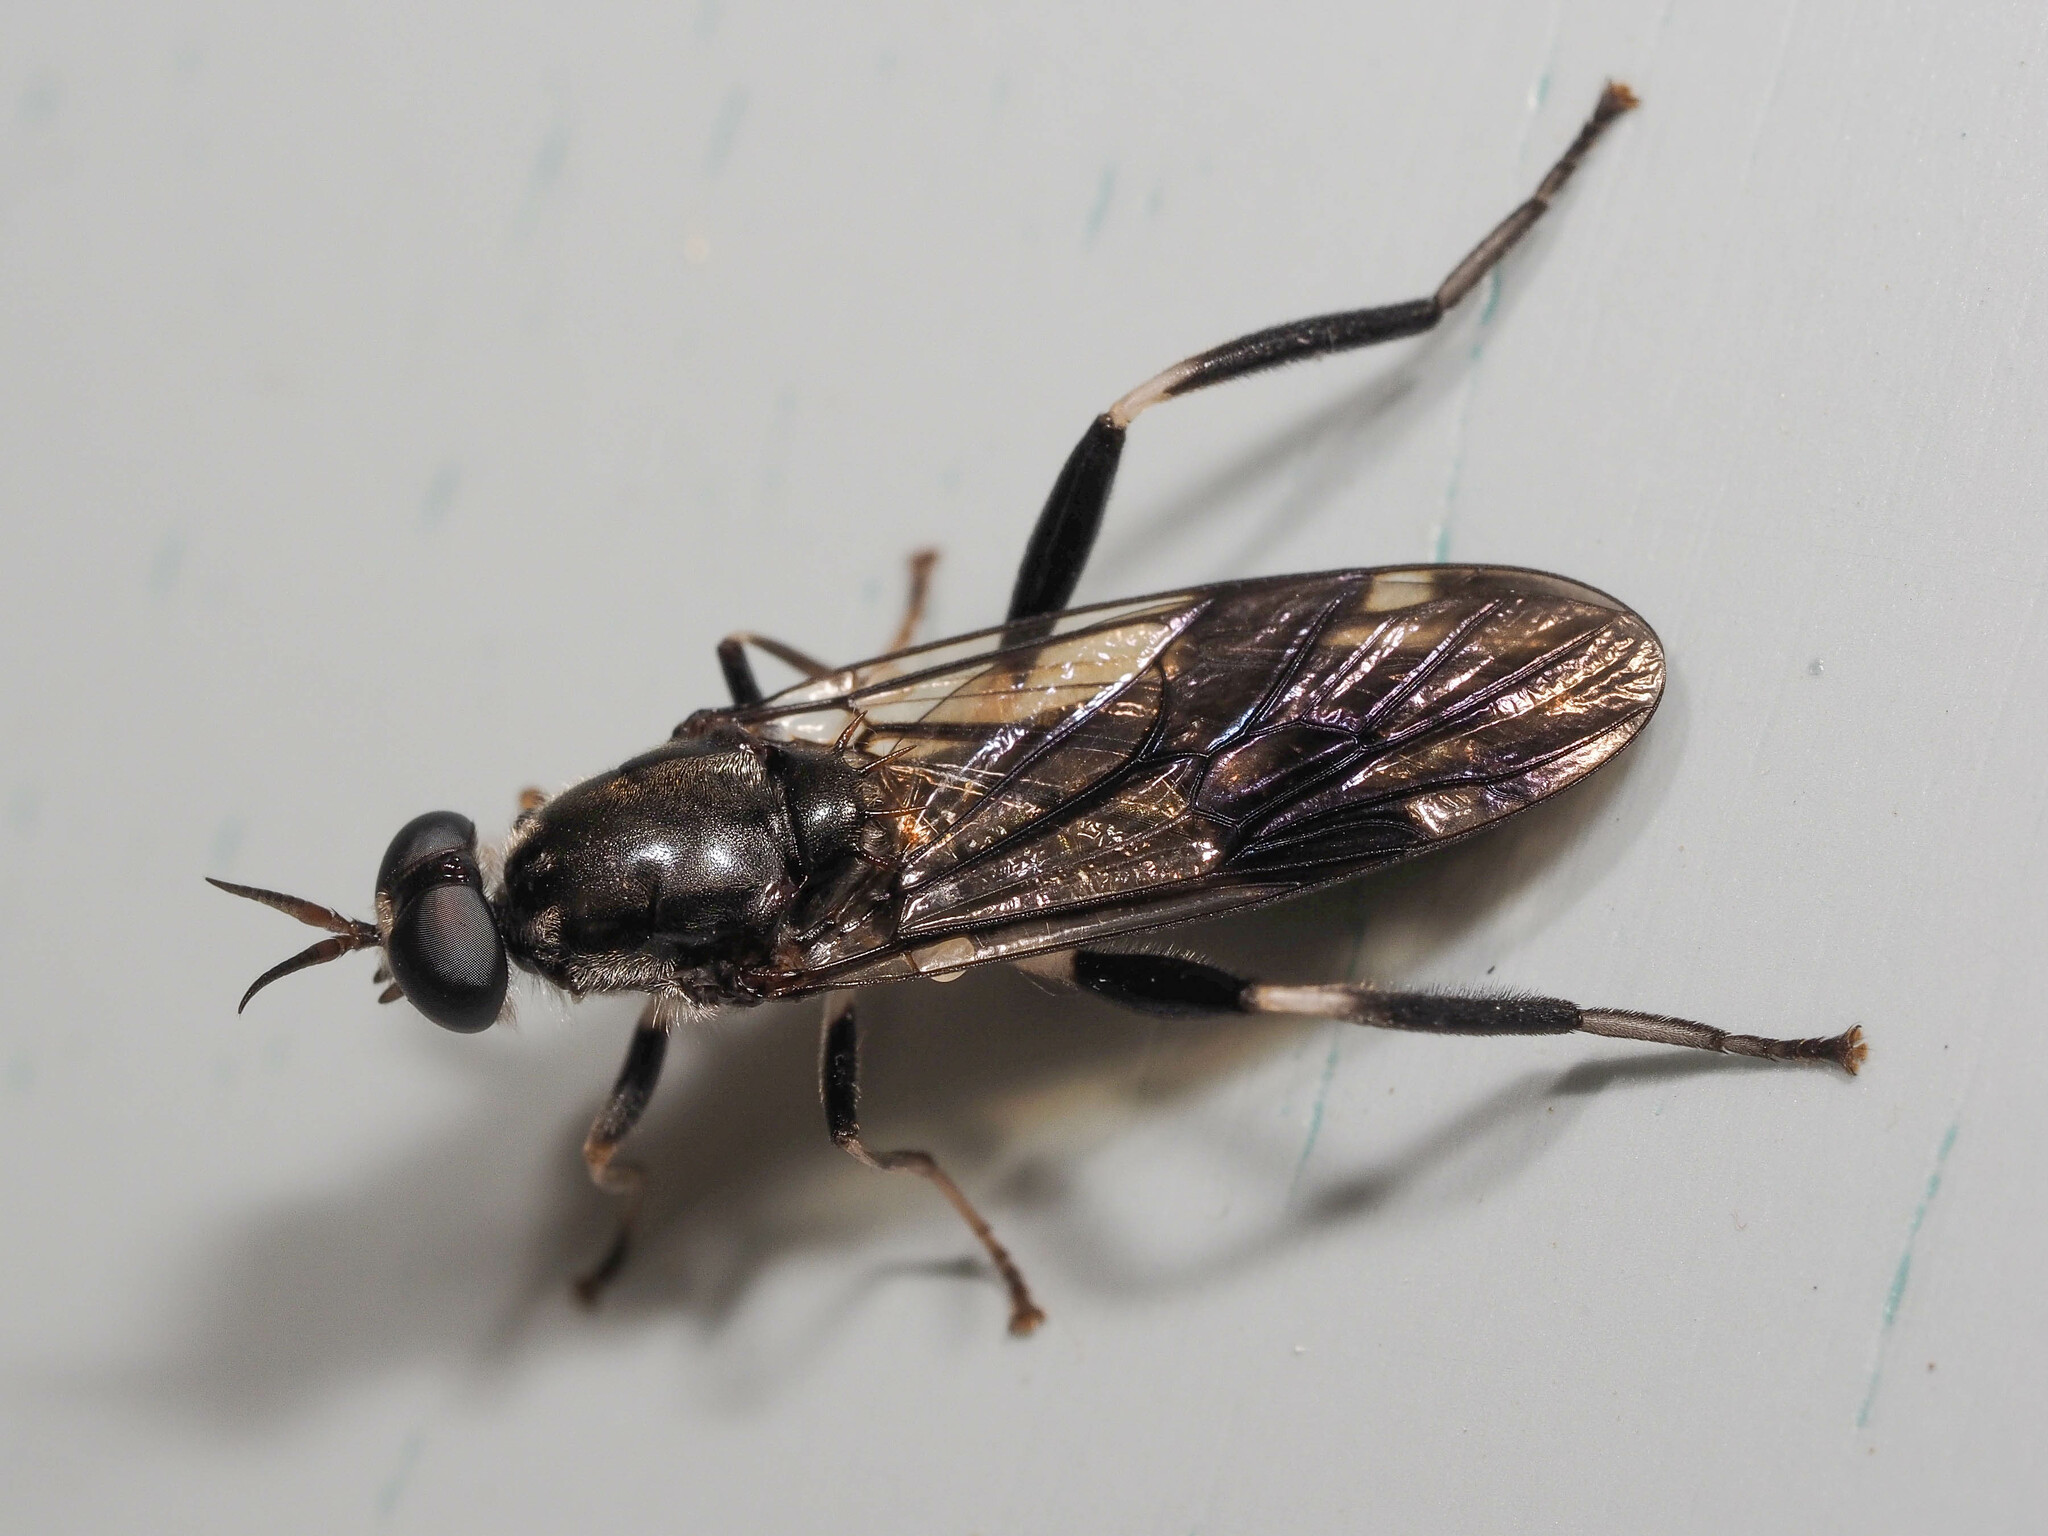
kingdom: Animalia
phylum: Arthropoda
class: Insecta
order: Diptera
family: Stratiomyidae
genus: Exaireta
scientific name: Exaireta spinigera
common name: Blue soldier fly
